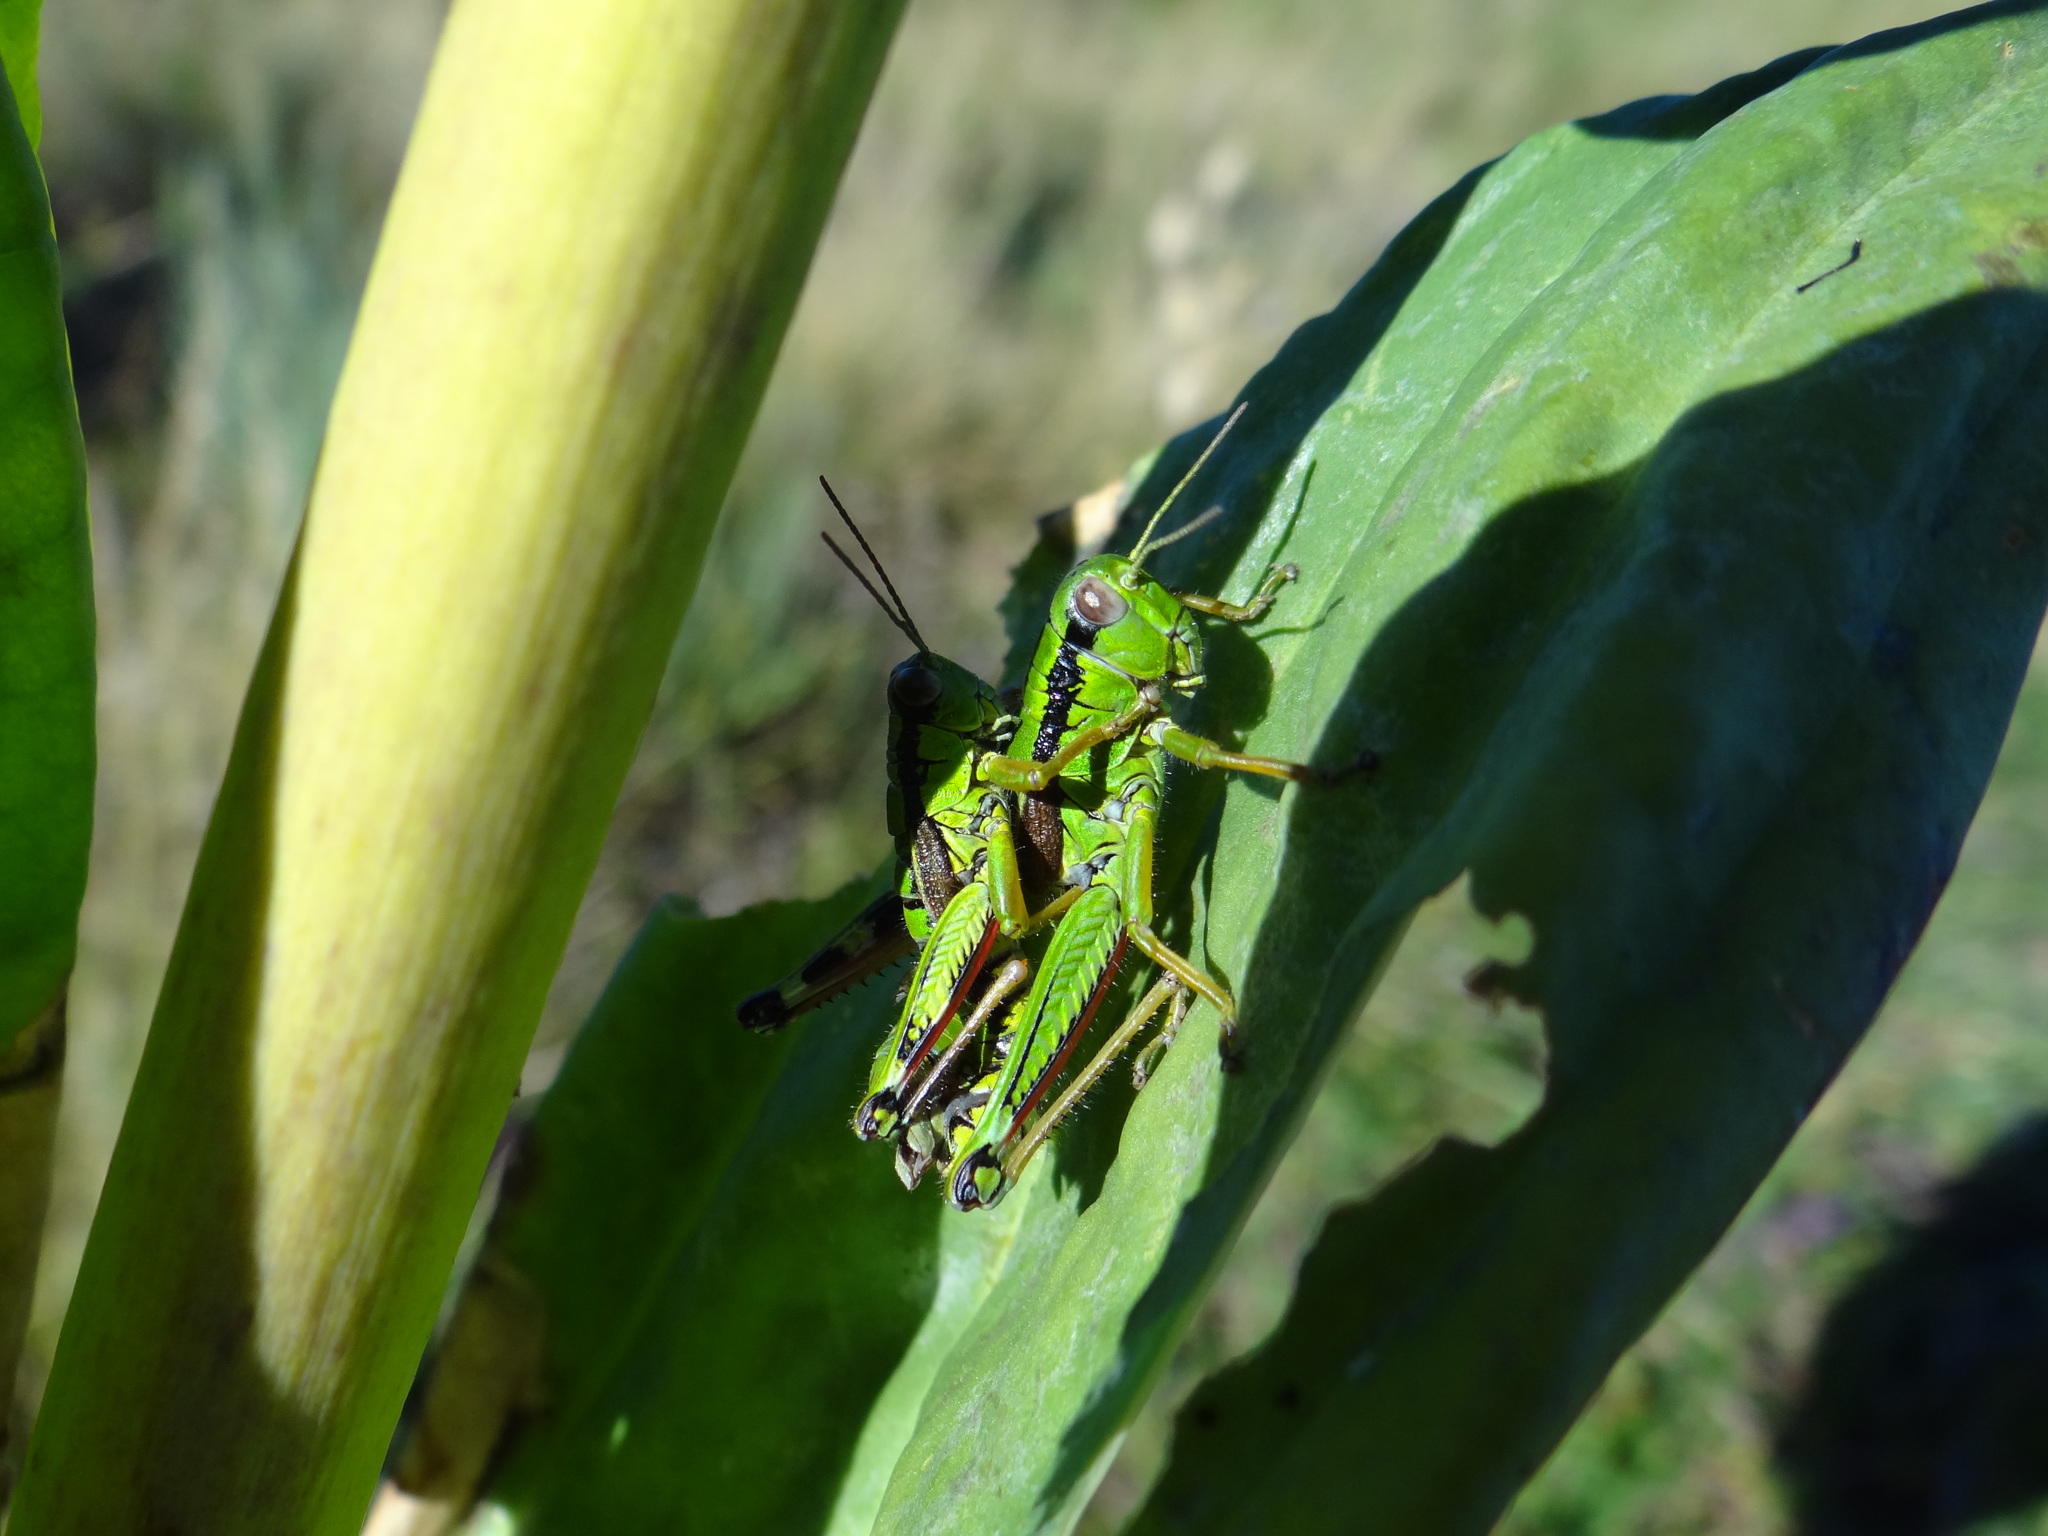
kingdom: Animalia
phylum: Arthropoda
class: Insecta
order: Orthoptera
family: Acrididae
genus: Miramella
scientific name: Miramella alpina
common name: Green mountain grasshopper
